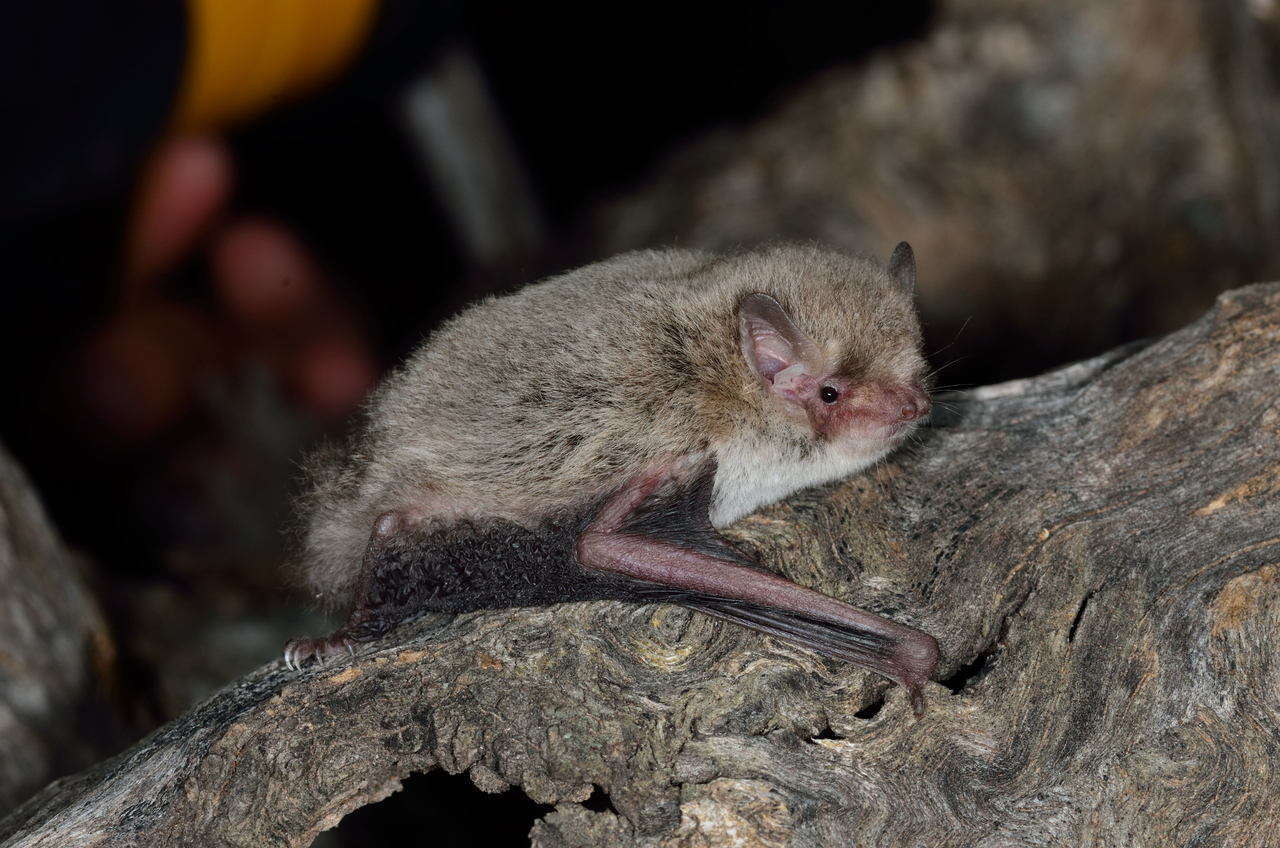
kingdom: Animalia
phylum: Chordata
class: Mammalia
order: Chiroptera
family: Vespertilionidae
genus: Vespadelus
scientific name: Vespadelus vulturnus
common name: Little forest bat
